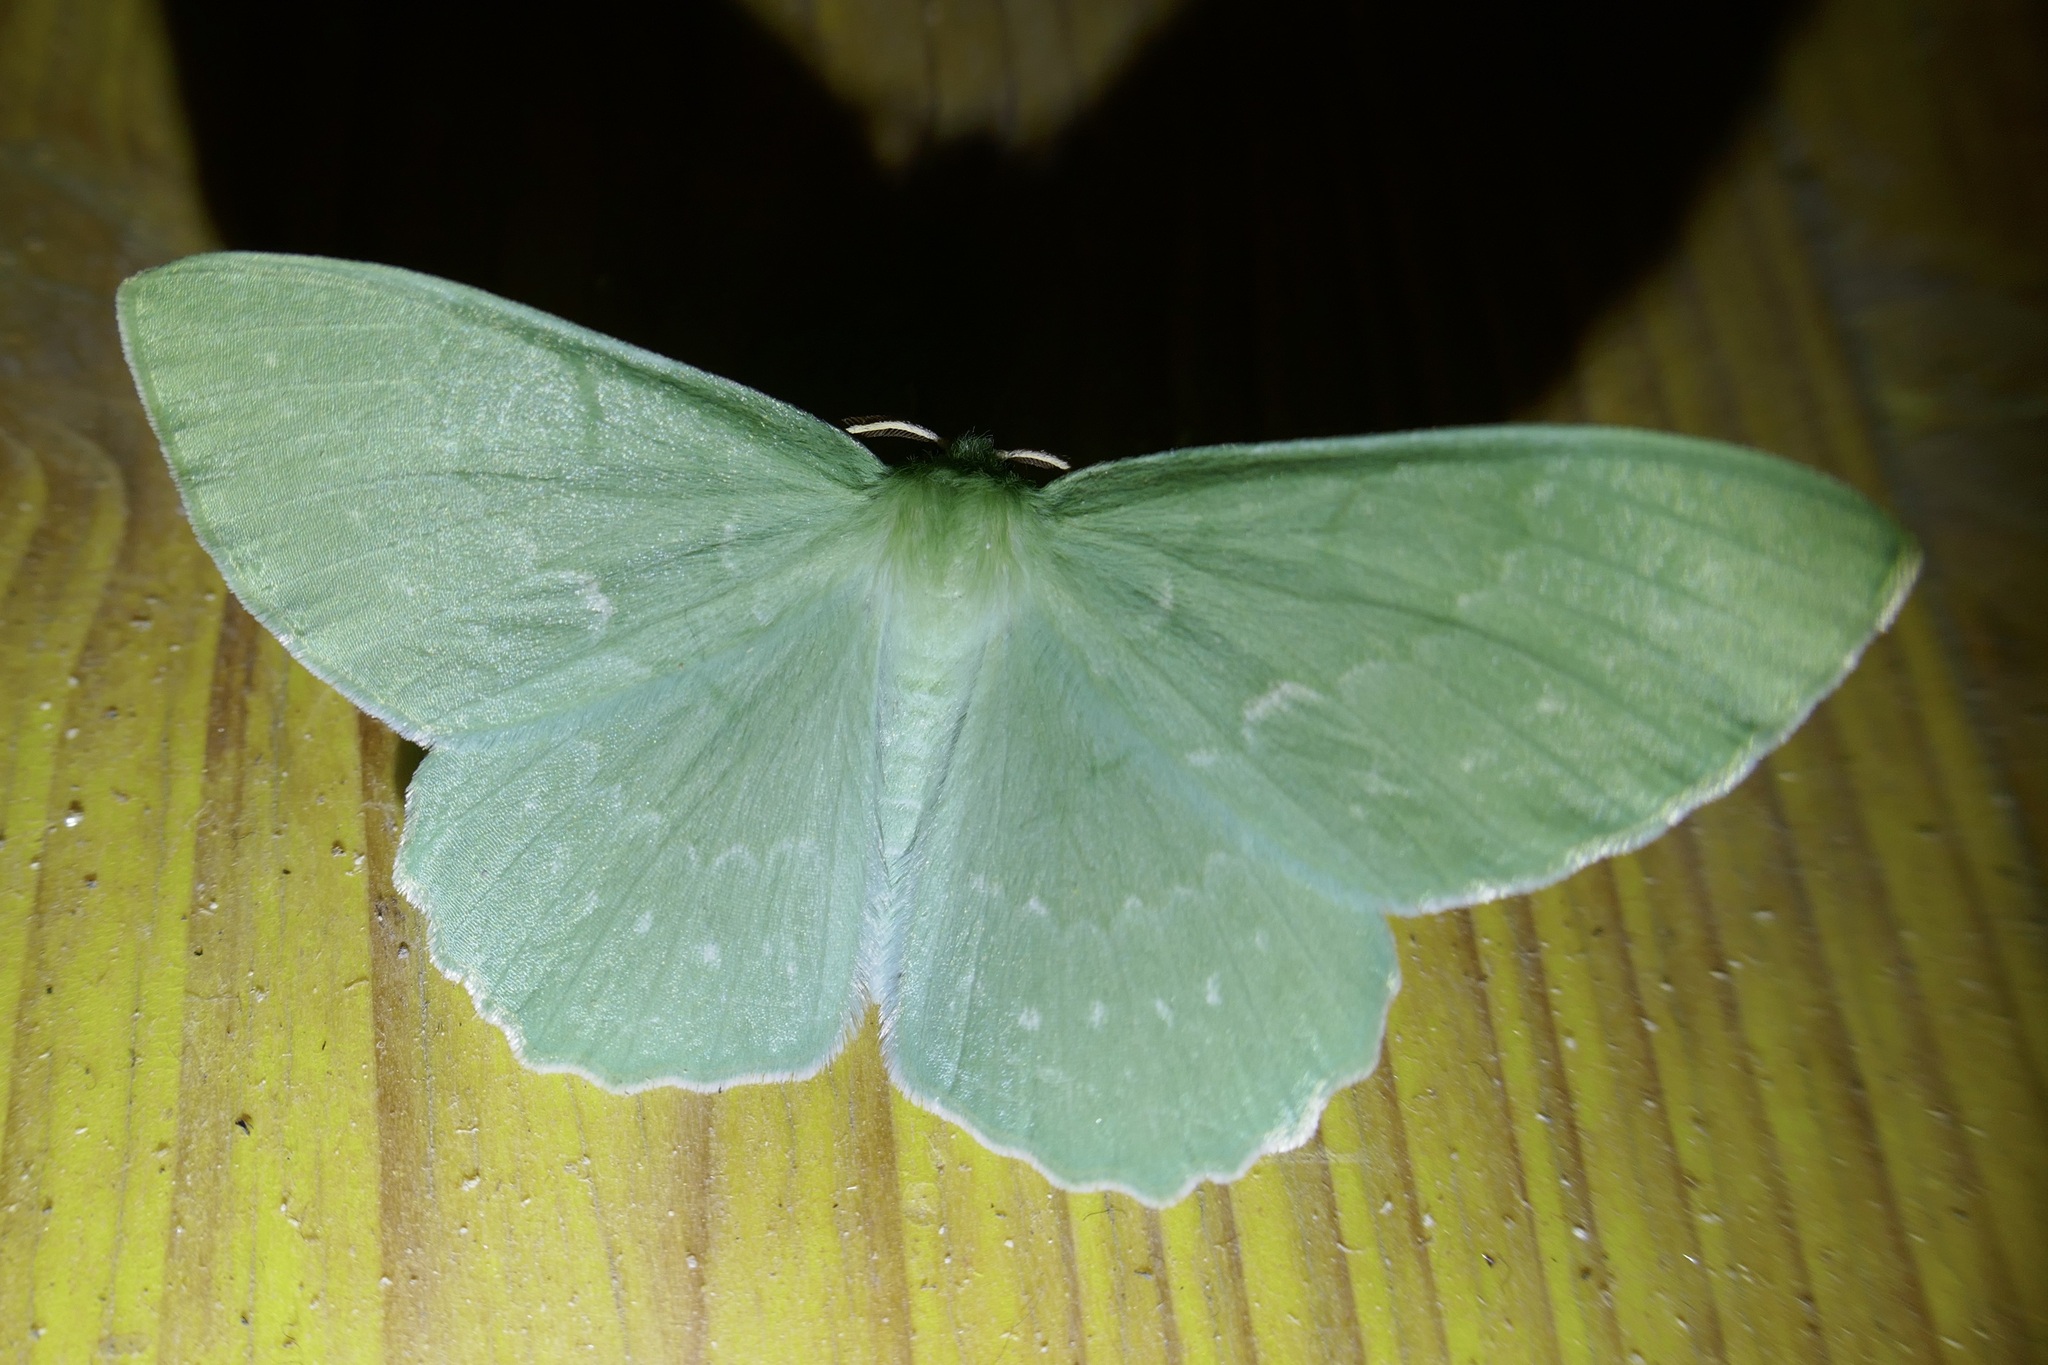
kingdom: Animalia
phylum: Arthropoda
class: Insecta
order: Lepidoptera
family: Geometridae
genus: Geometra
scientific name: Geometra papilionaria
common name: Large emerald
